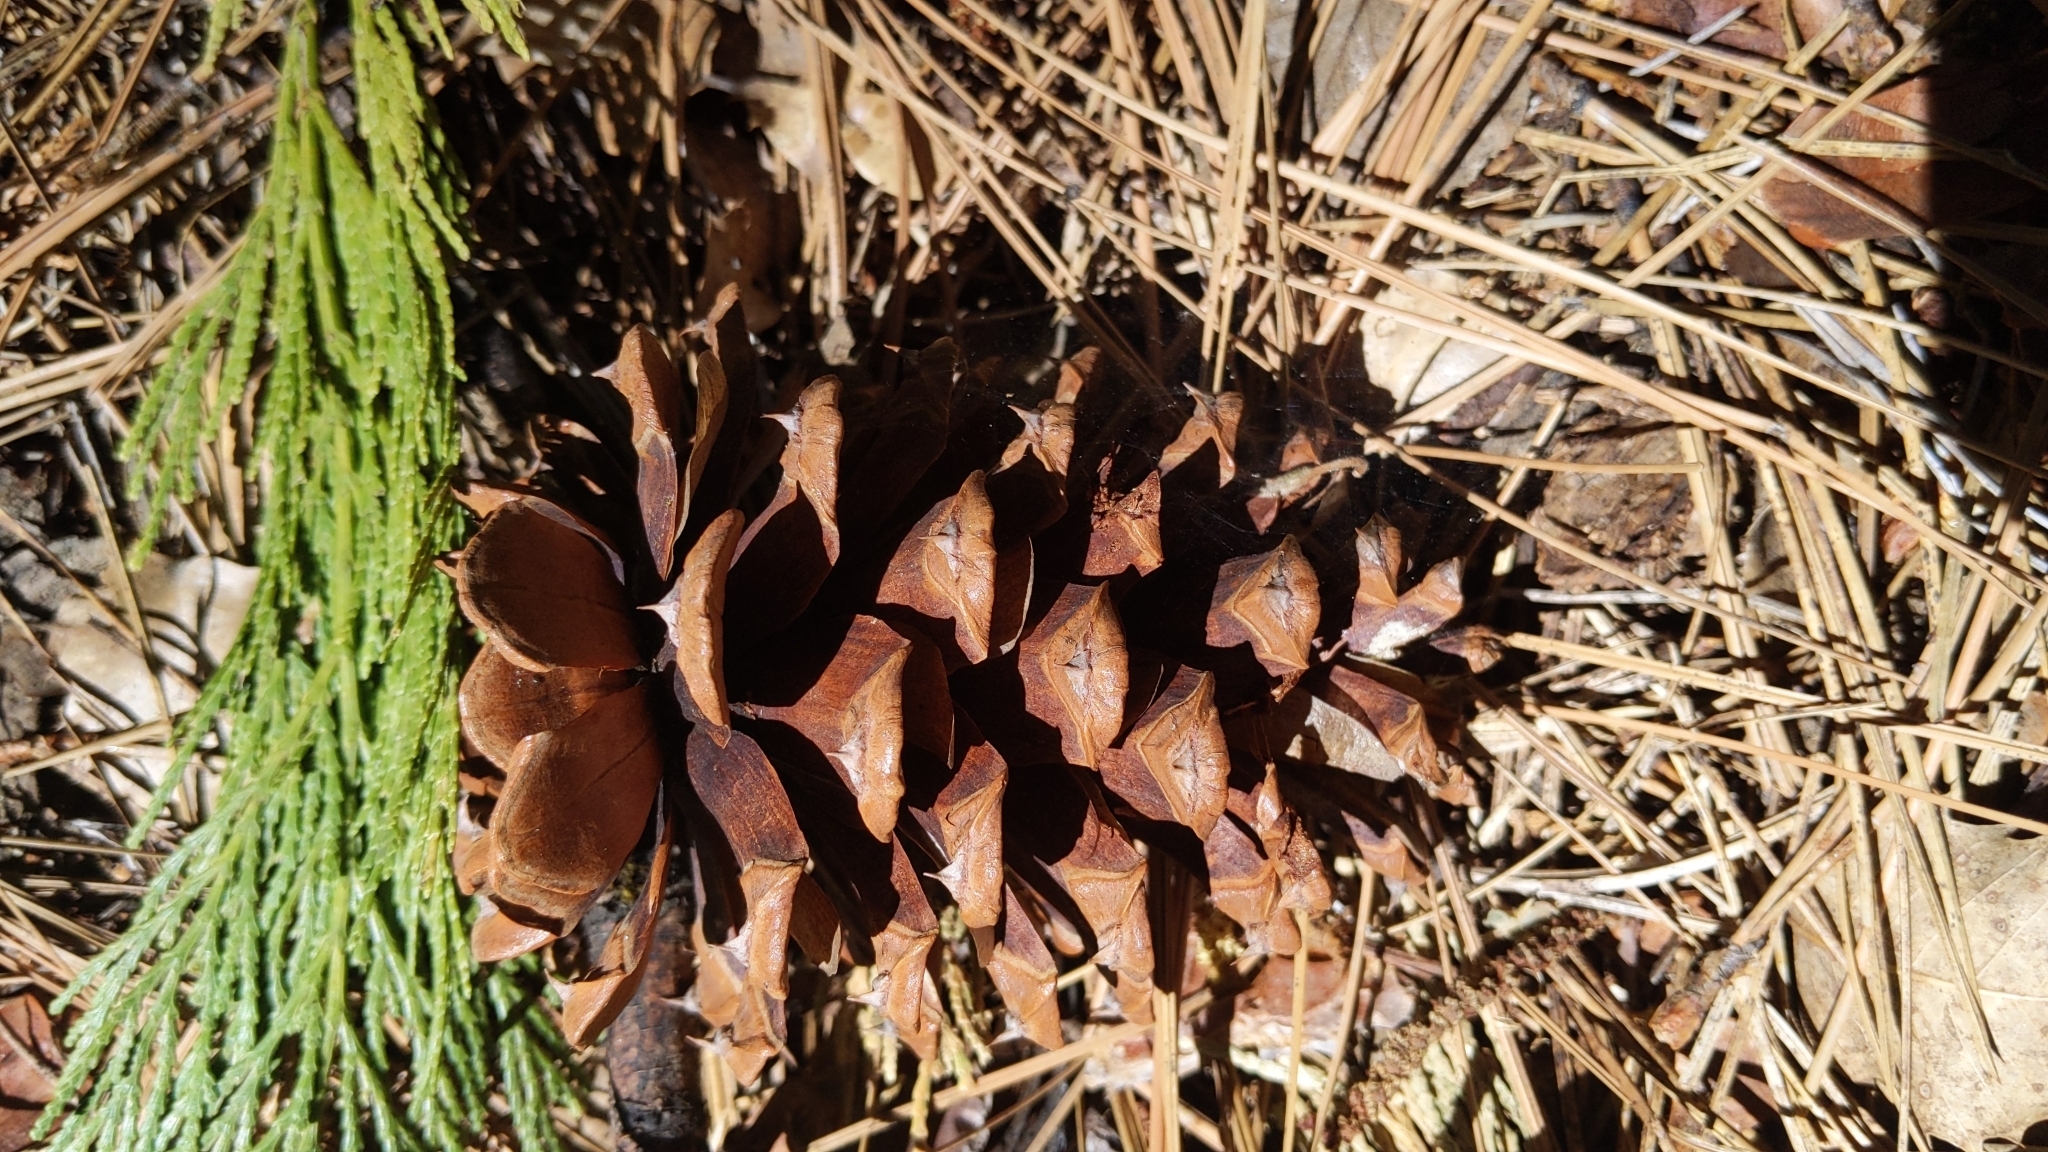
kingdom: Plantae
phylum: Tracheophyta
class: Pinopsida
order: Pinales
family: Pinaceae
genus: Pinus
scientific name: Pinus ponderosa
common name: Western yellow-pine
